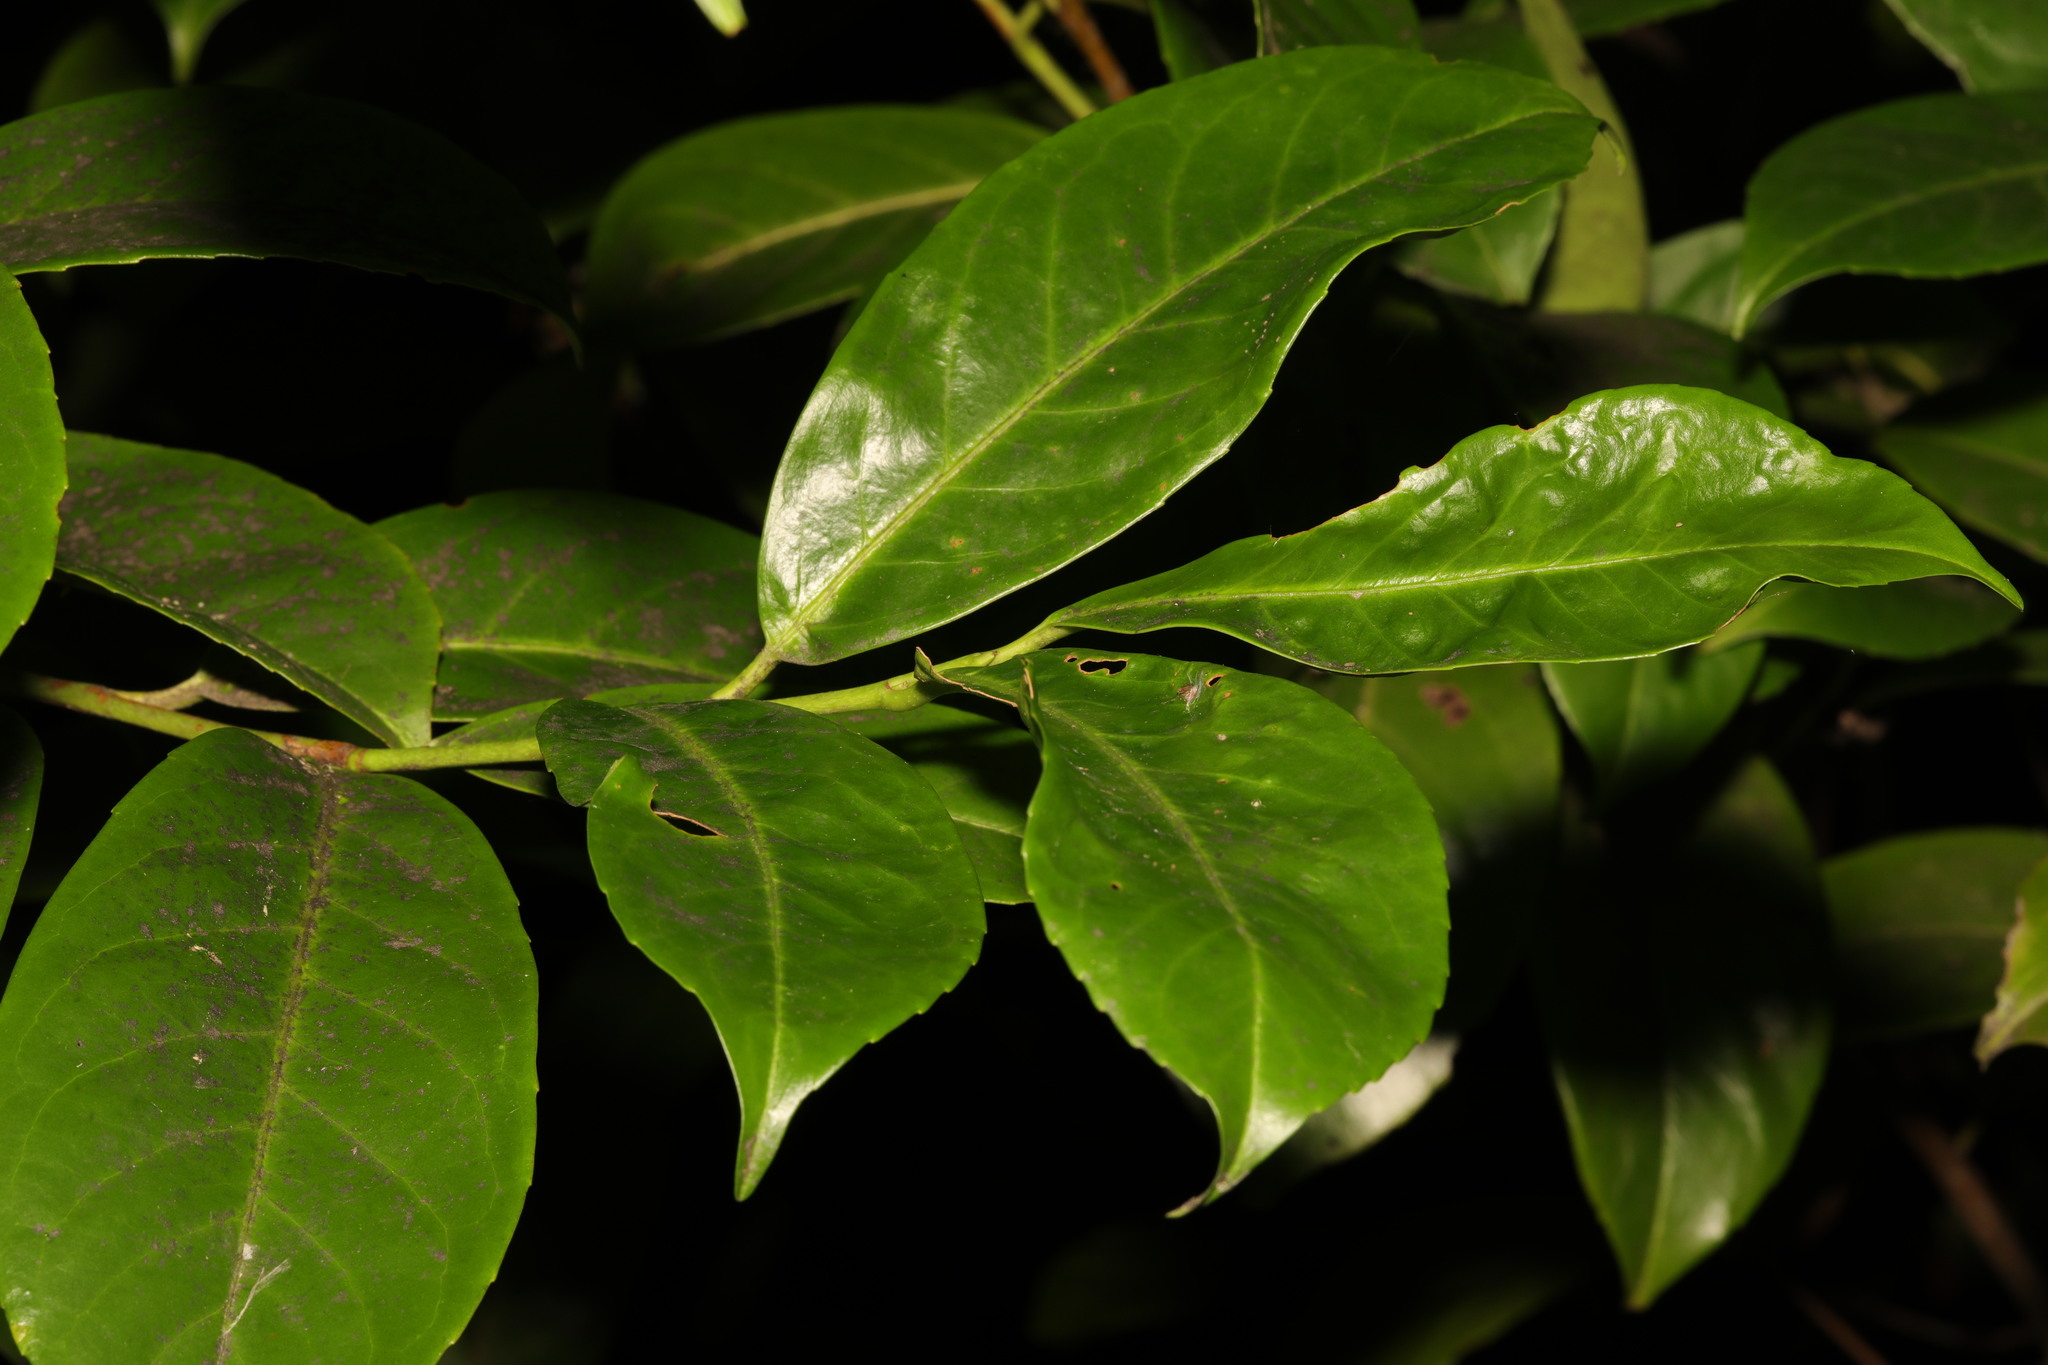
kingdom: Plantae
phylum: Tracheophyta
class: Magnoliopsida
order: Rosales
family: Rosaceae
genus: Prunus
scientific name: Prunus laurocerasus
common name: Cherry laurel
